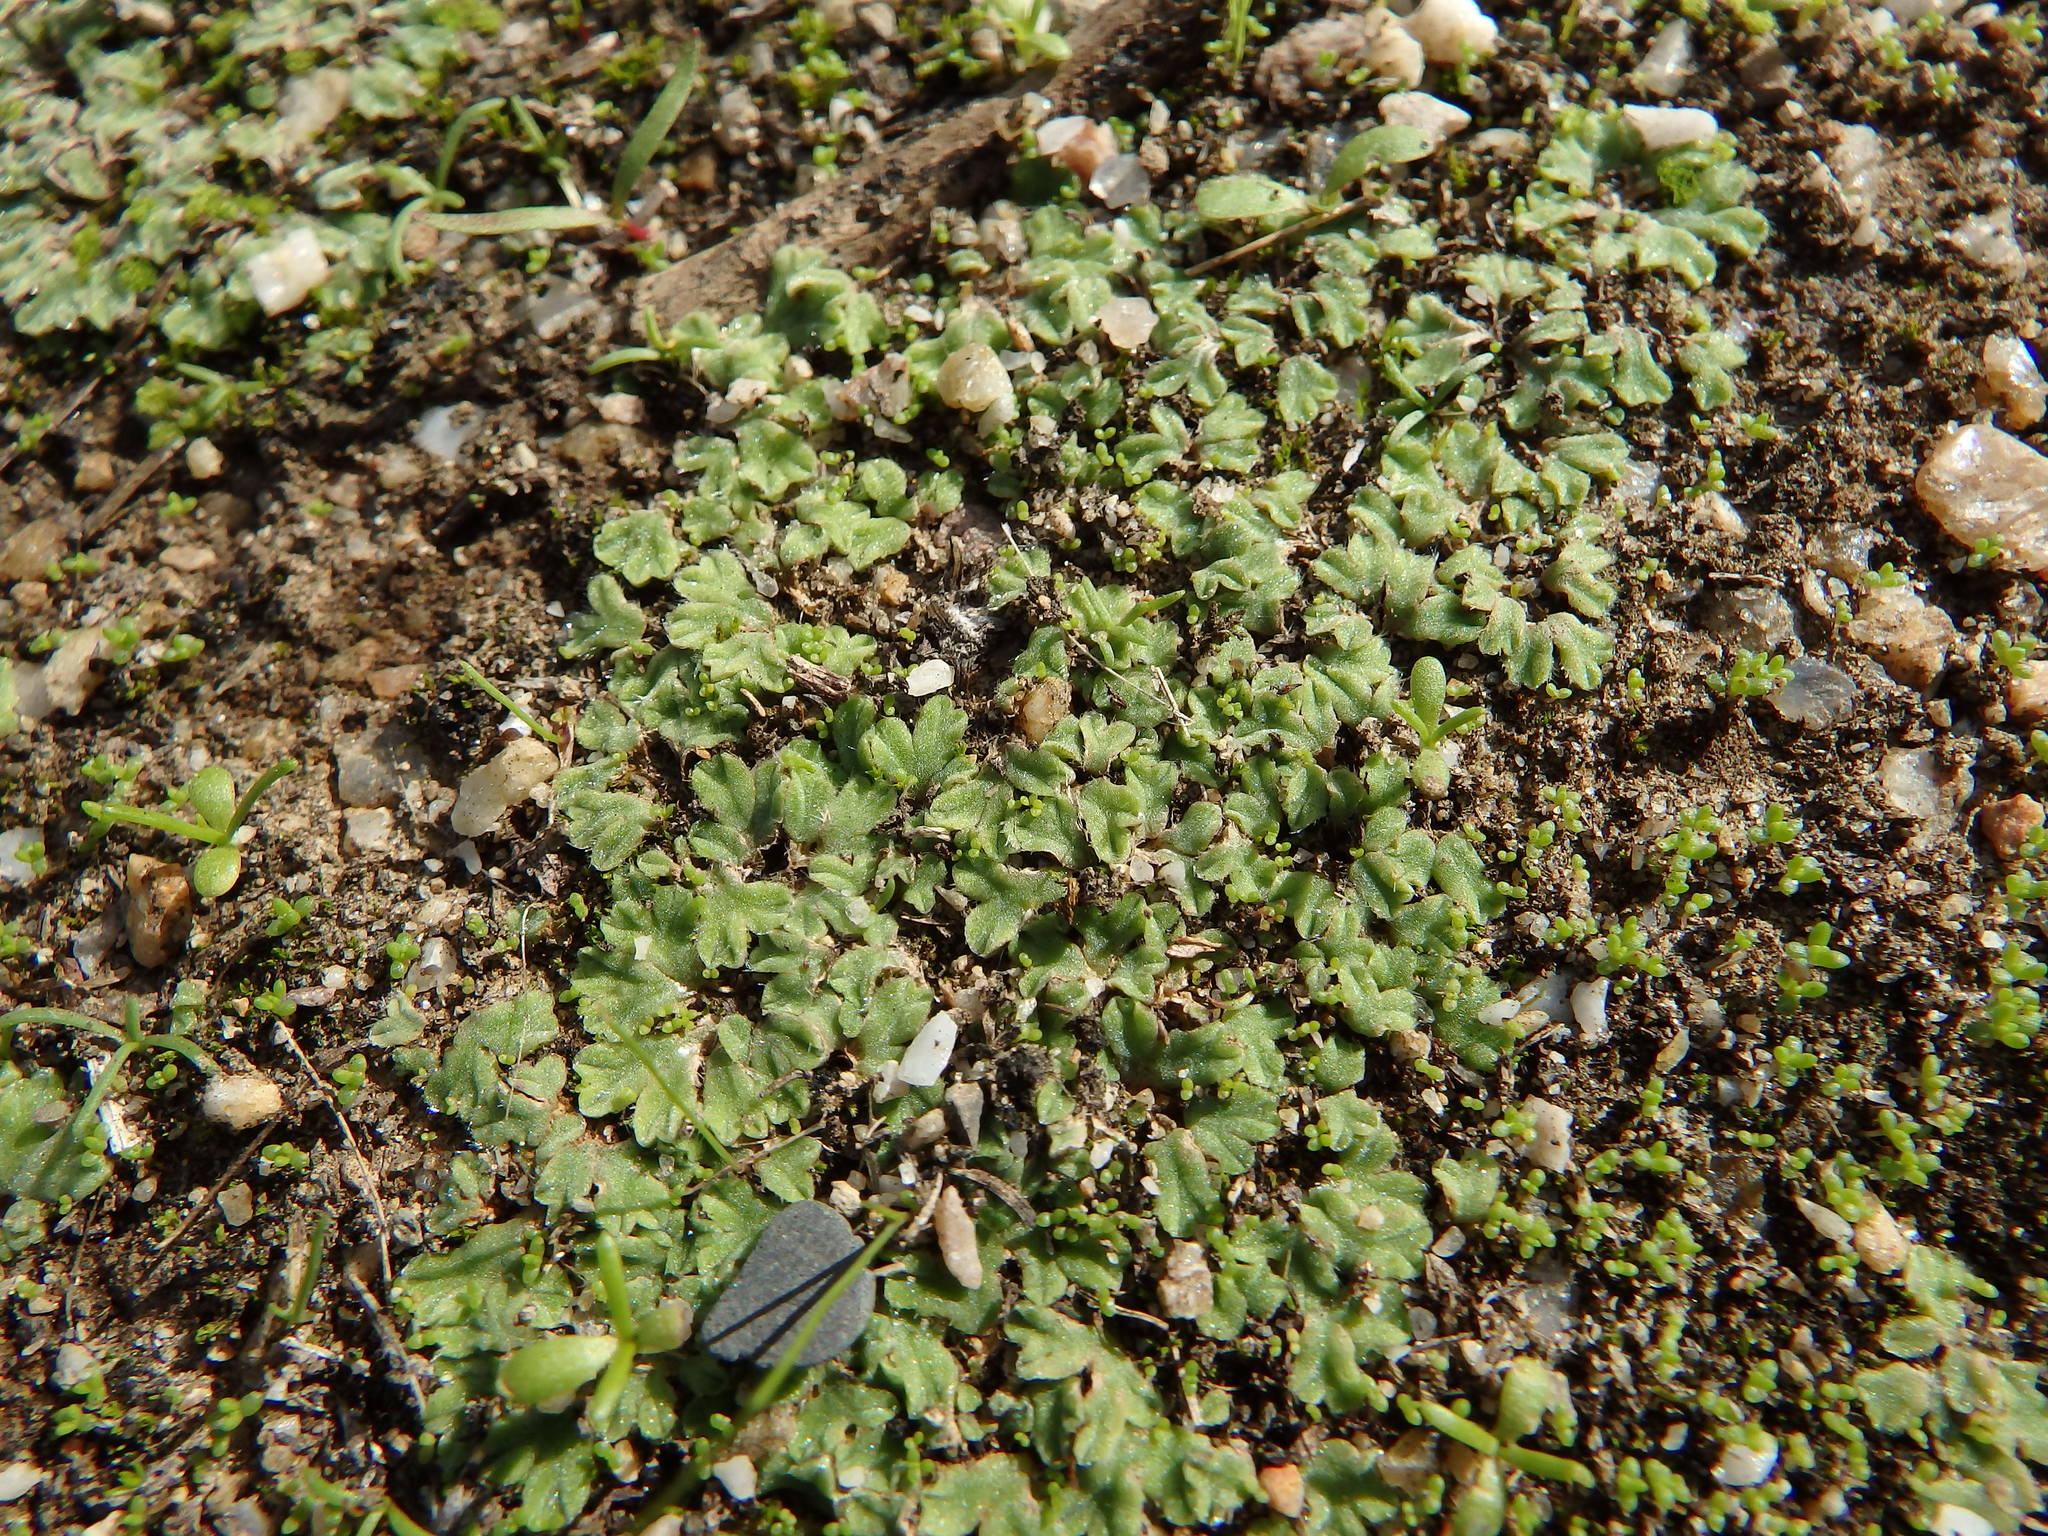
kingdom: Plantae
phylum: Marchantiophyta
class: Marchantiopsida
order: Marchantiales
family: Ricciaceae
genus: Riccia
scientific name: Riccia ciliifera
